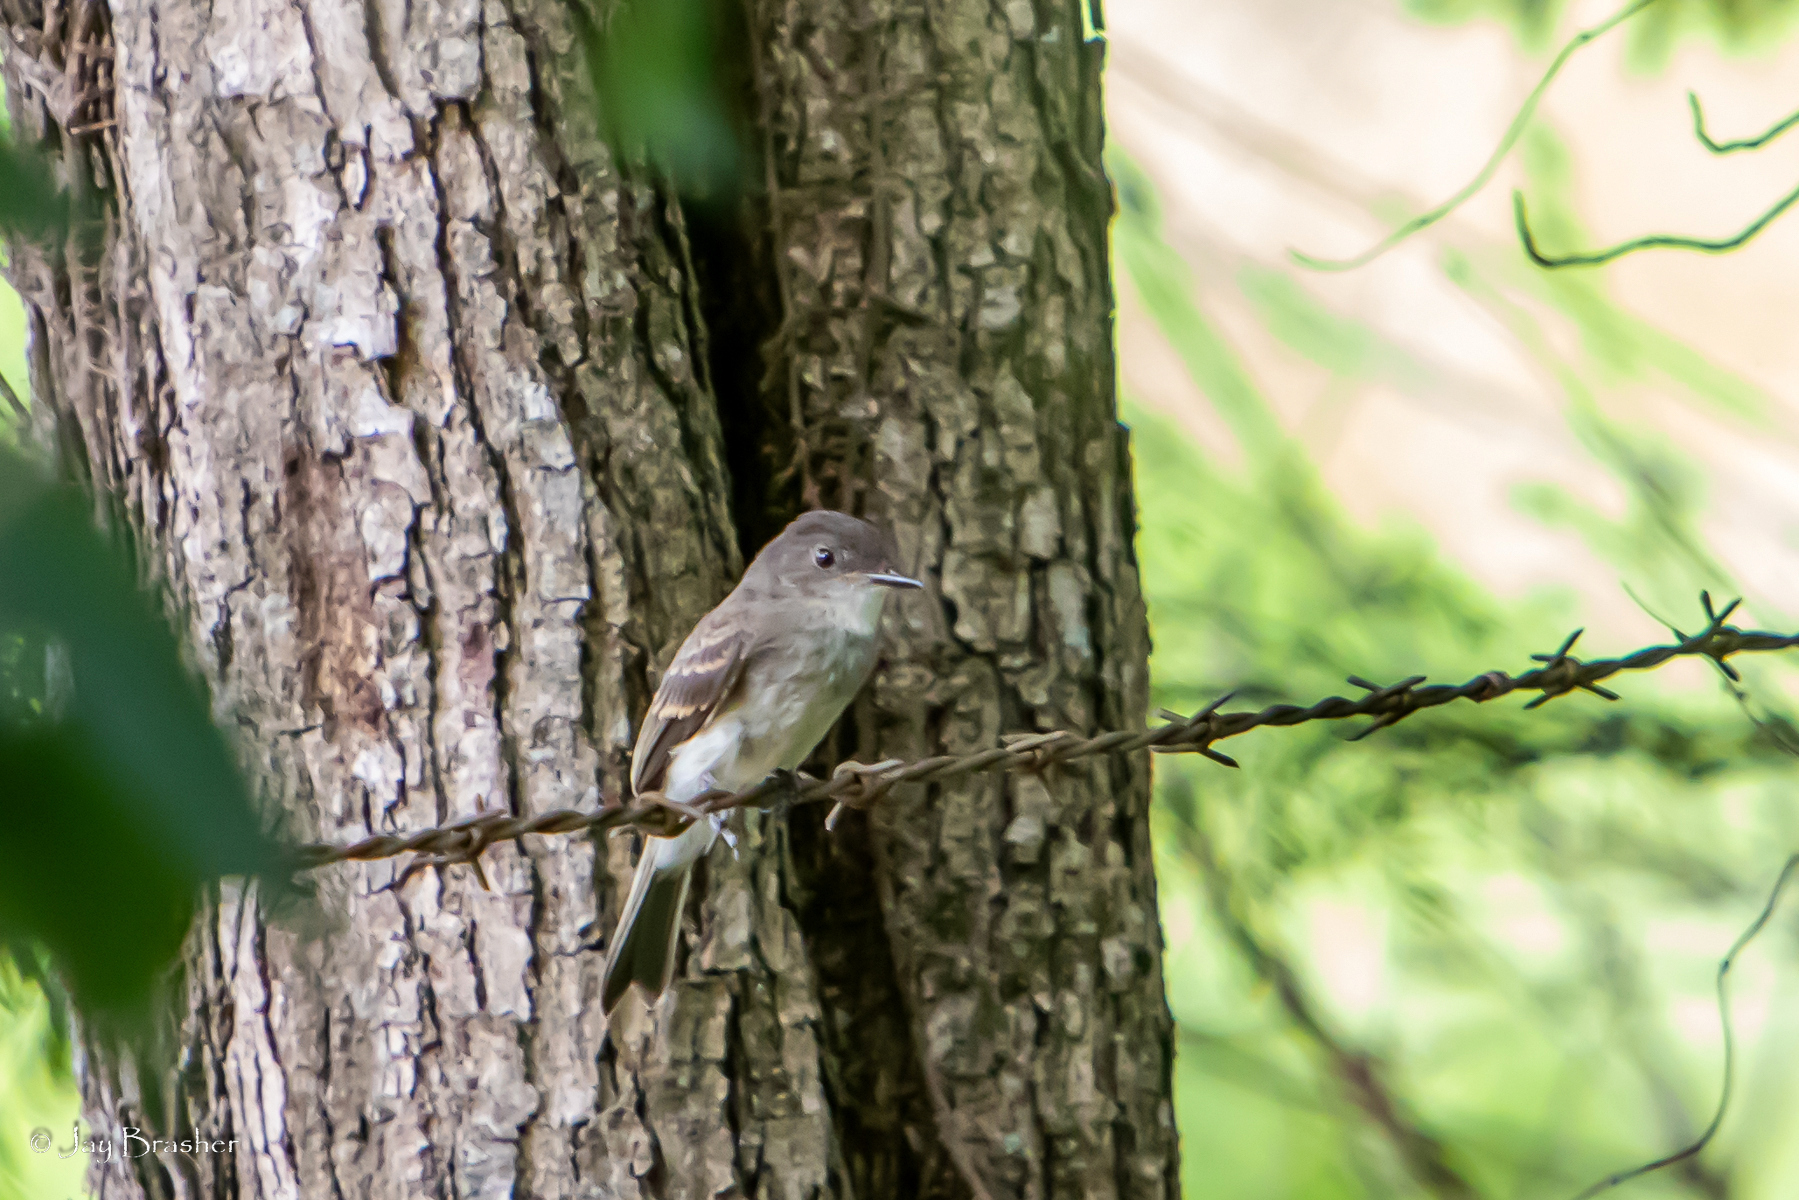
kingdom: Animalia
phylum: Chordata
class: Aves
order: Passeriformes
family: Tyrannidae
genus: Contopus
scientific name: Contopus virens
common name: Eastern wood-pewee
